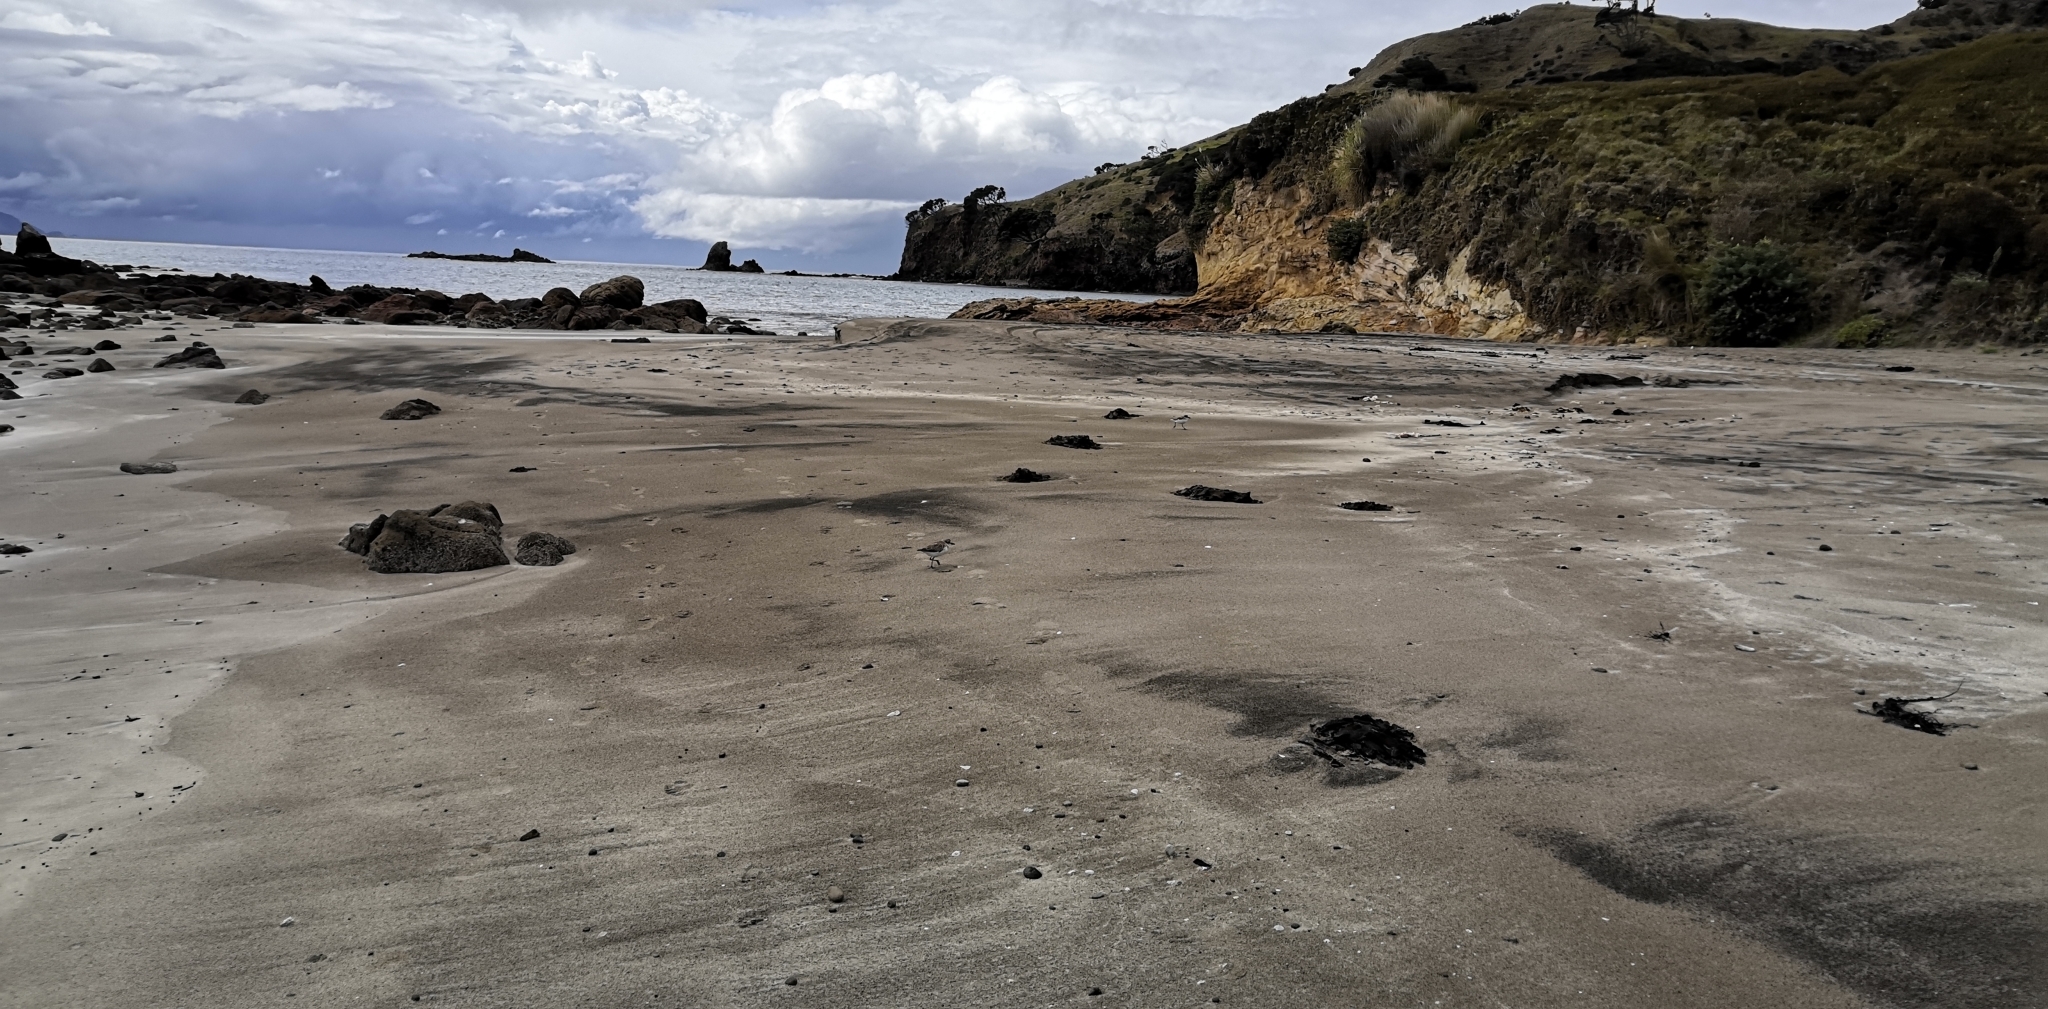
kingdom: Animalia
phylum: Chordata
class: Aves
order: Charadriiformes
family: Charadriidae
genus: Anarhynchus
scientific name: Anarhynchus
